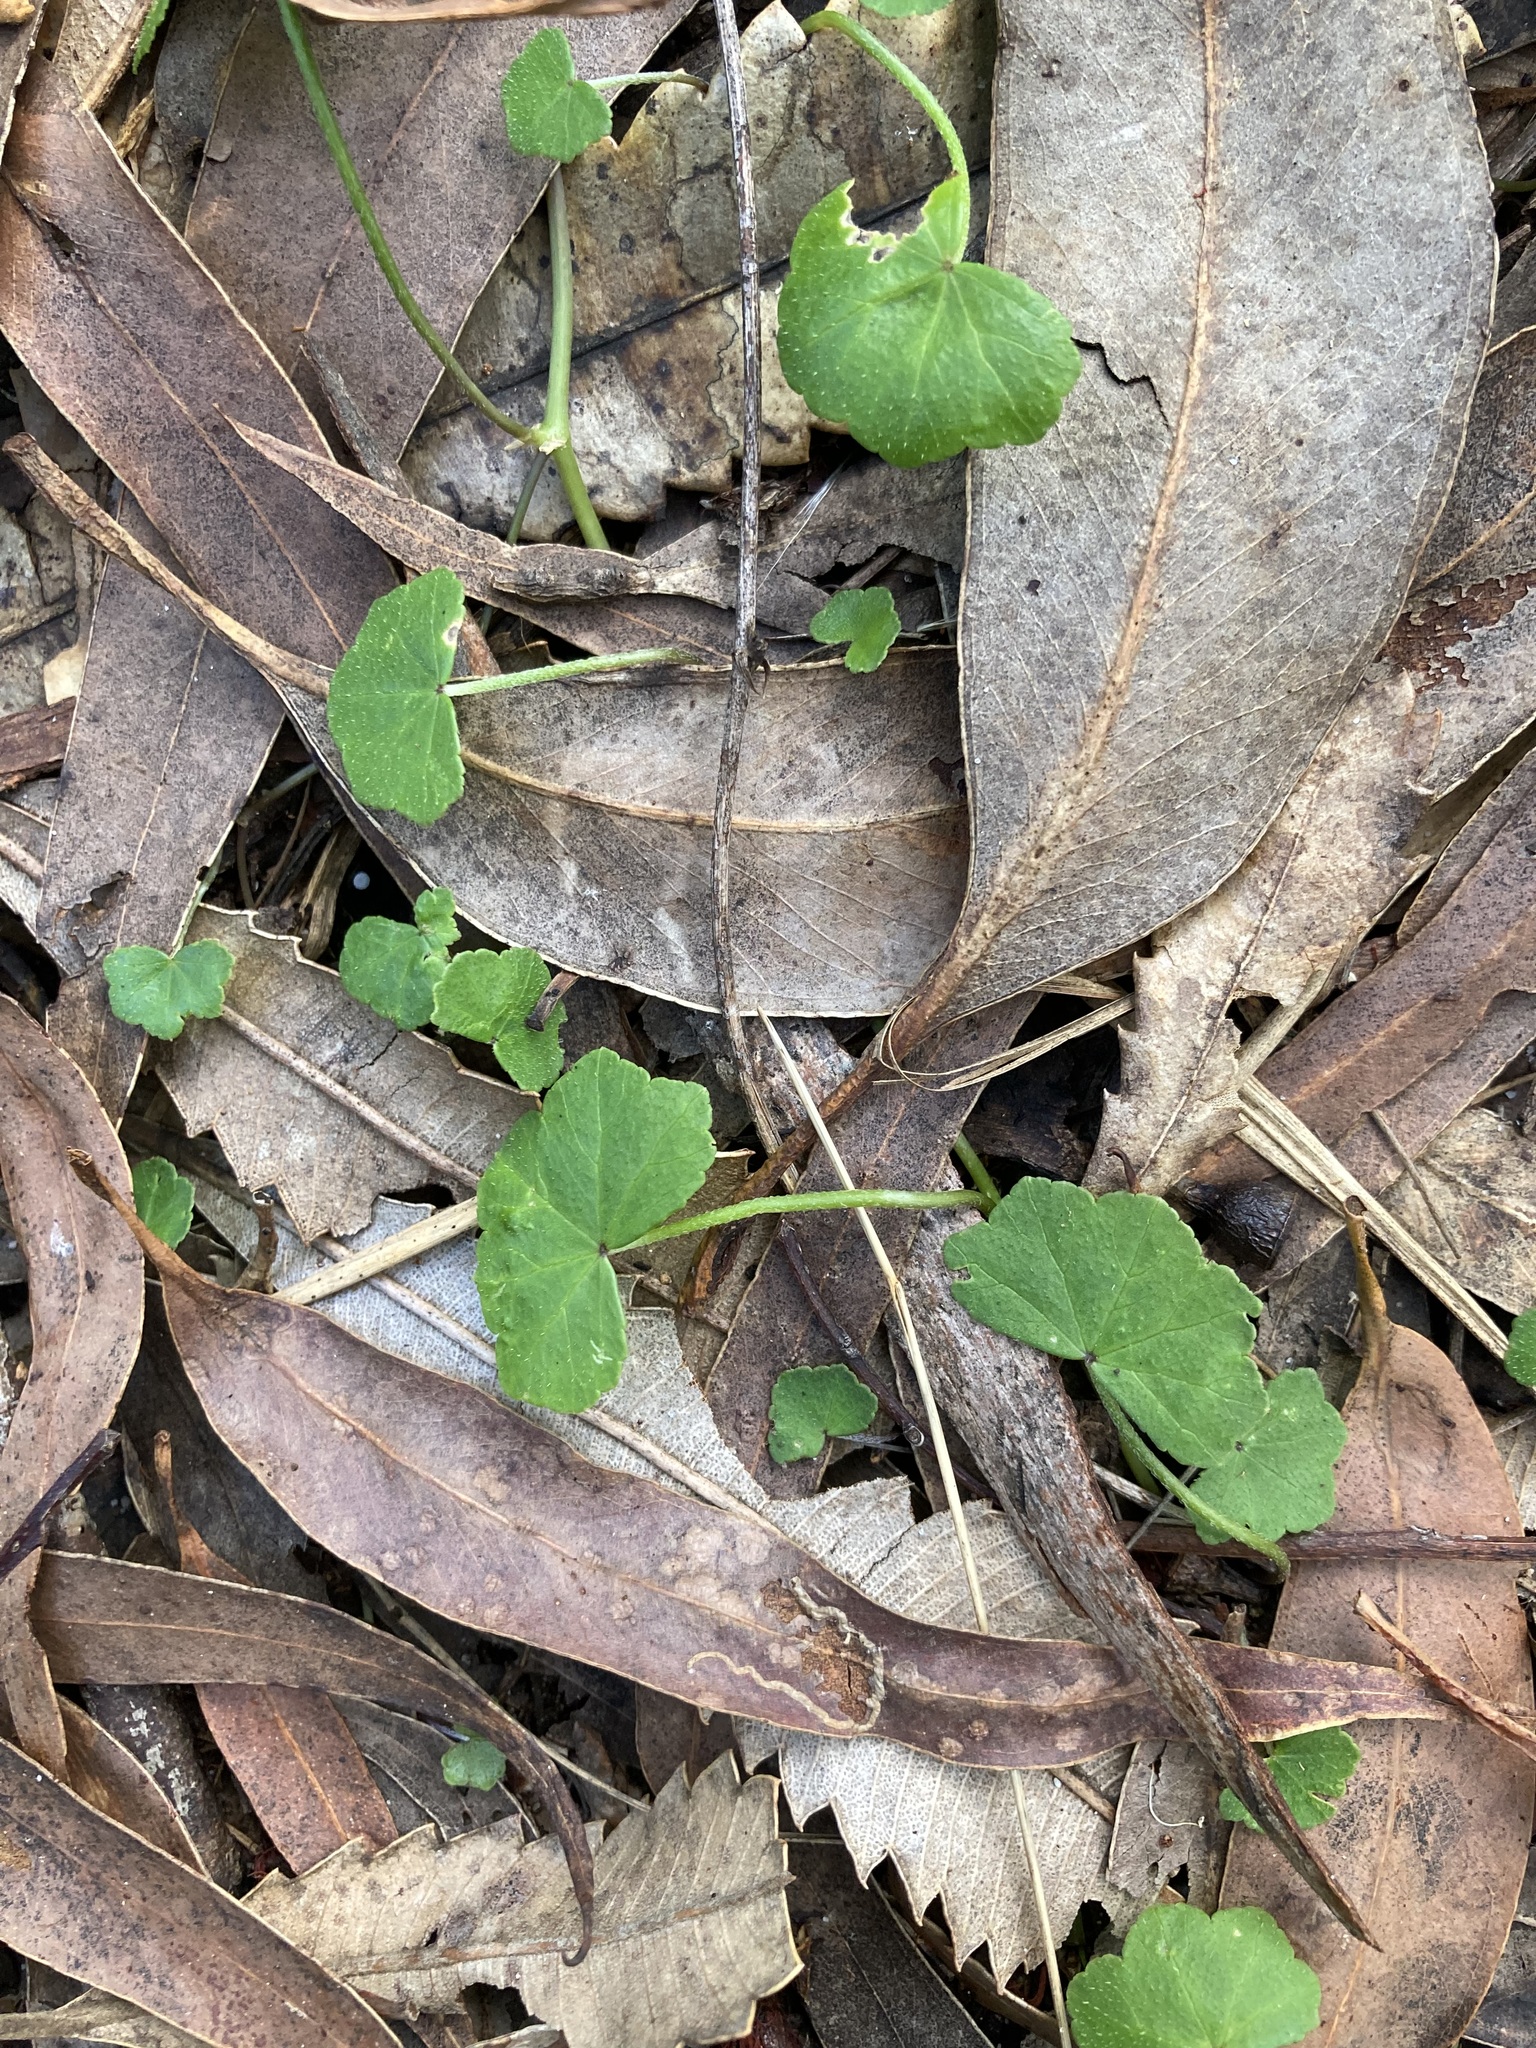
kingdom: Plantae
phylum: Tracheophyta
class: Magnoliopsida
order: Apiales
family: Araliaceae
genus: Hydrocotyle
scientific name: Hydrocotyle hirta
